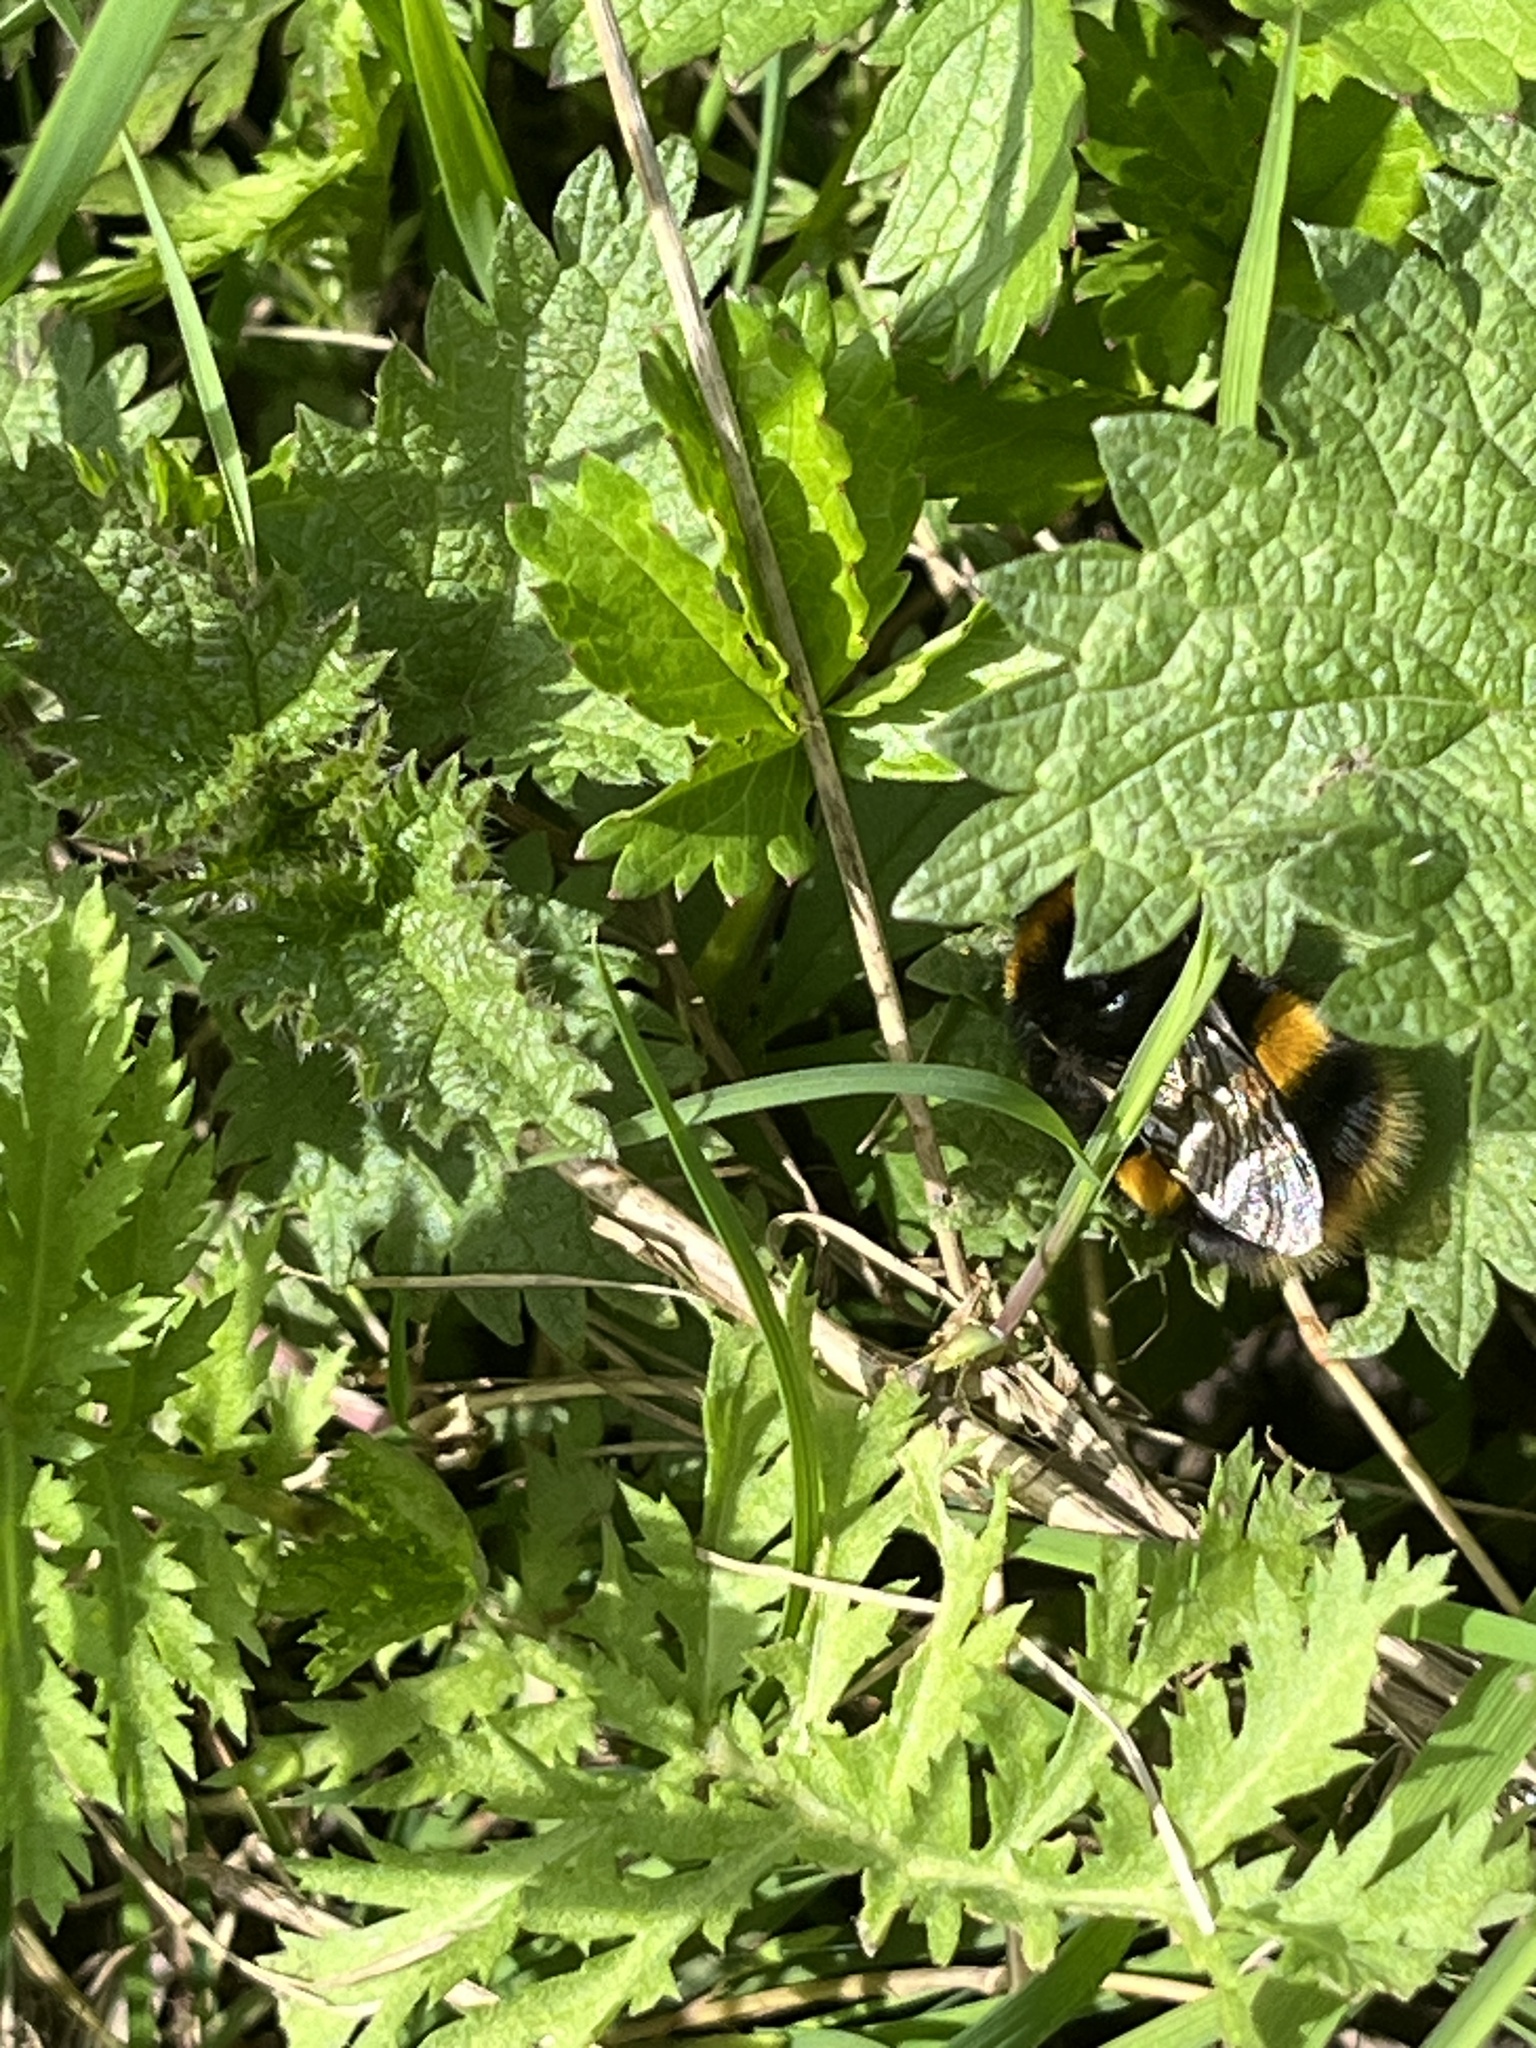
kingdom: Animalia
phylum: Arthropoda
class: Insecta
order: Hymenoptera
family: Apidae
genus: Bombus
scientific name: Bombus terrestris
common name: Buff-tailed bumblebee
